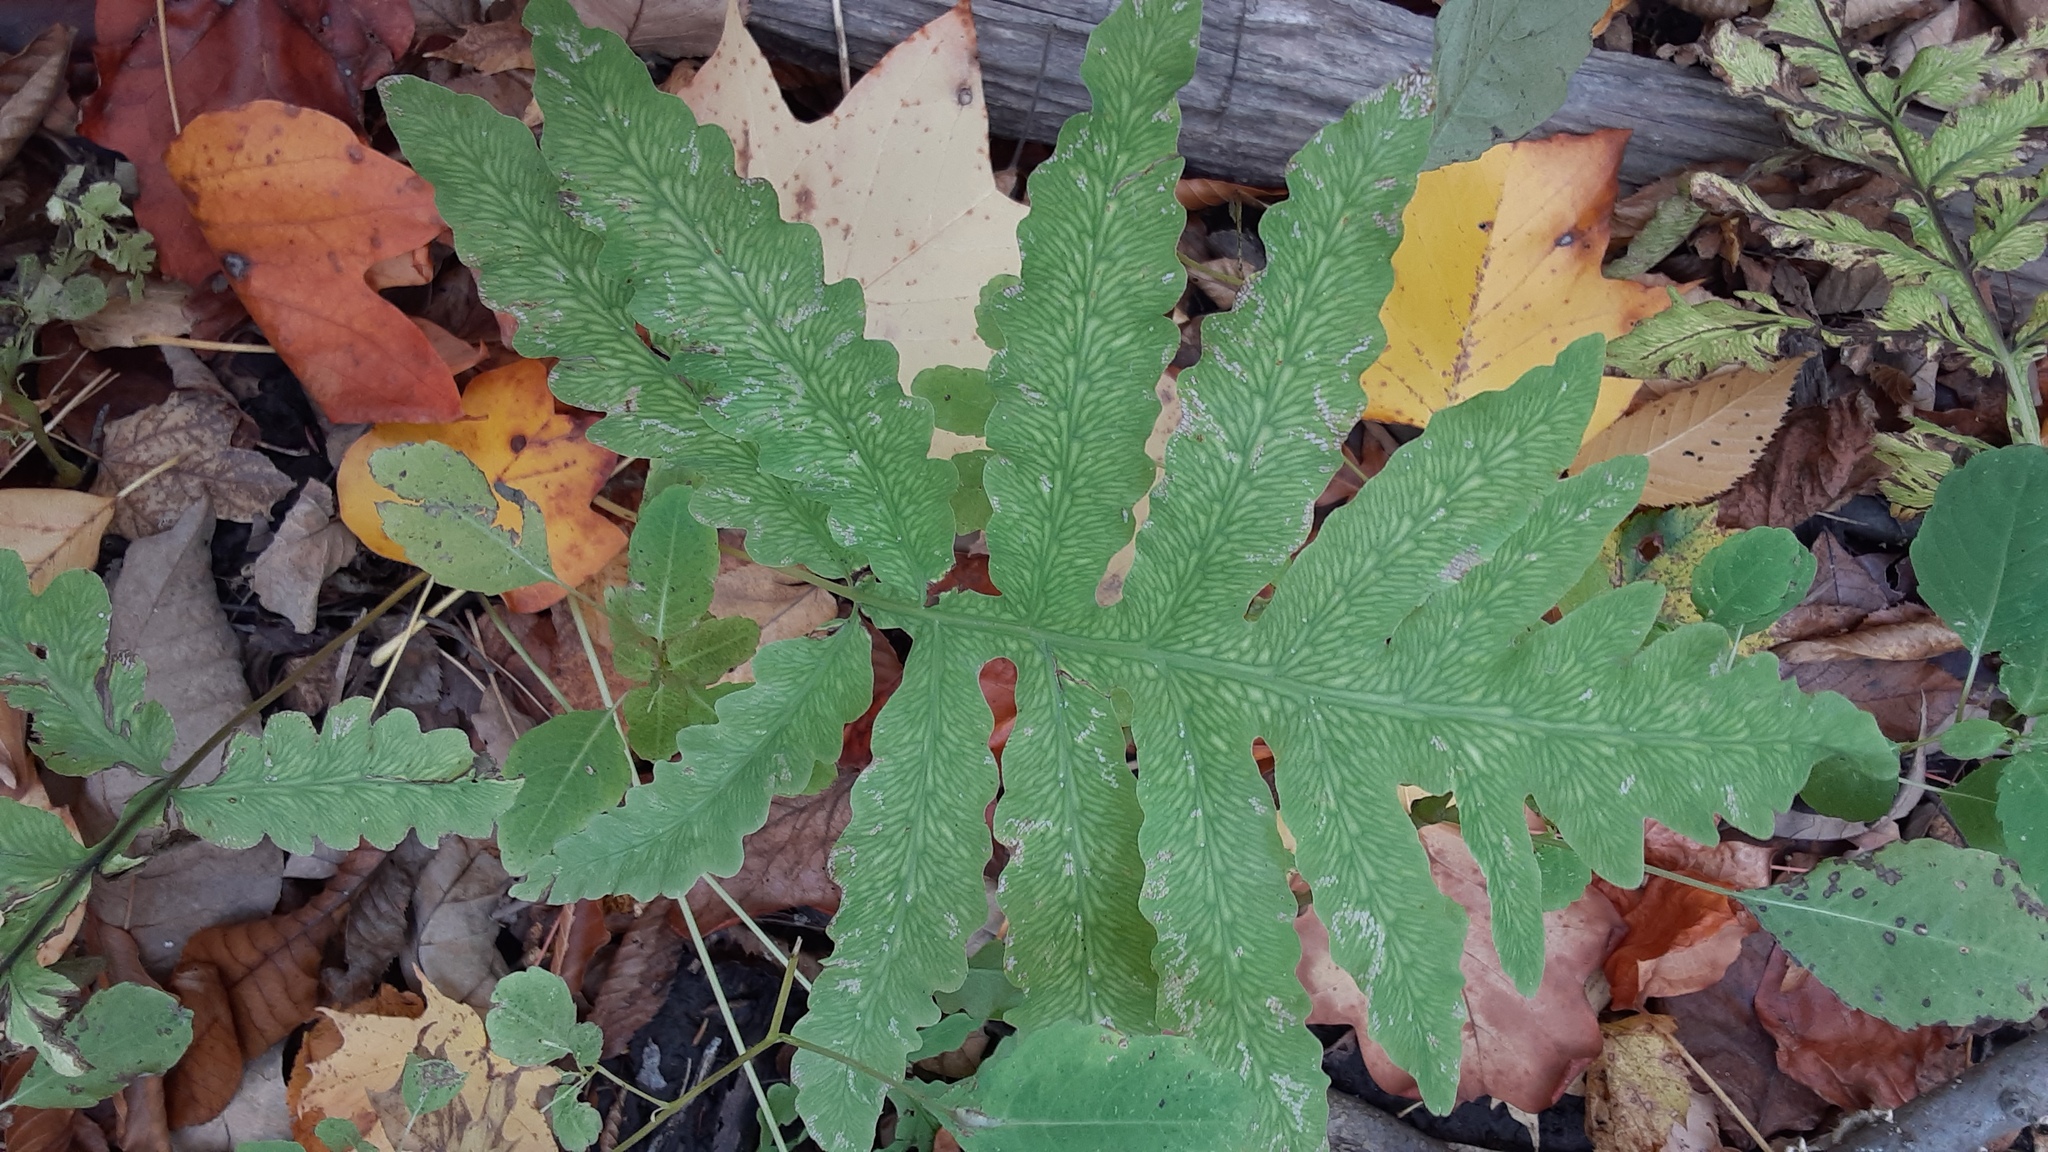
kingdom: Plantae
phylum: Tracheophyta
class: Polypodiopsida
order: Polypodiales
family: Onocleaceae
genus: Onoclea
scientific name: Onoclea sensibilis
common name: Sensitive fern
